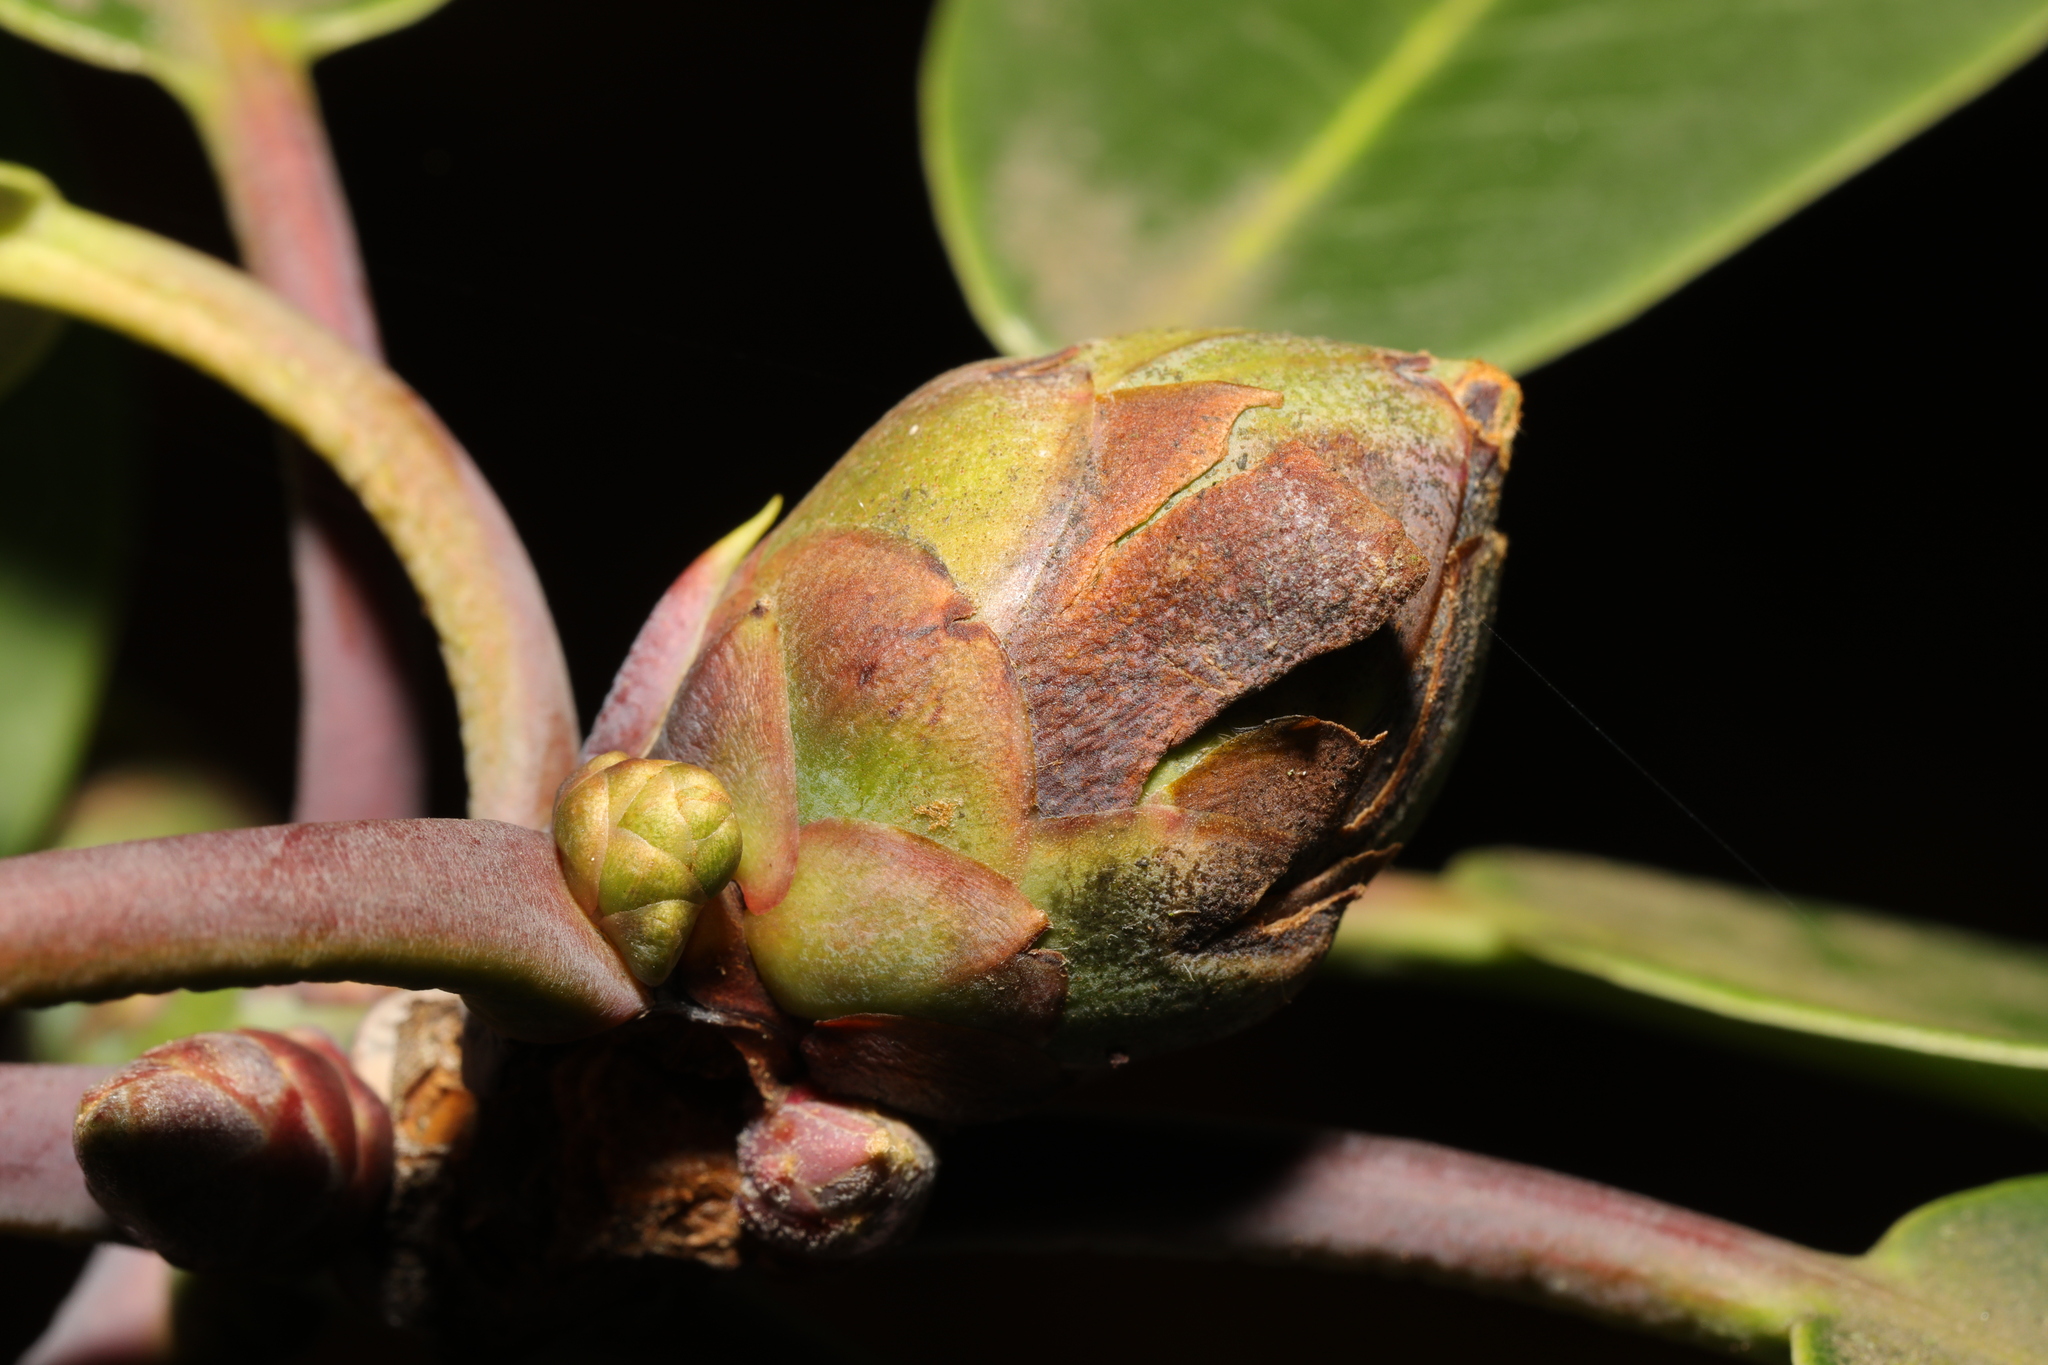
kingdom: Plantae
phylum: Tracheophyta
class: Magnoliopsida
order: Ericales
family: Ericaceae
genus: Rhododendron
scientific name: Rhododendron
